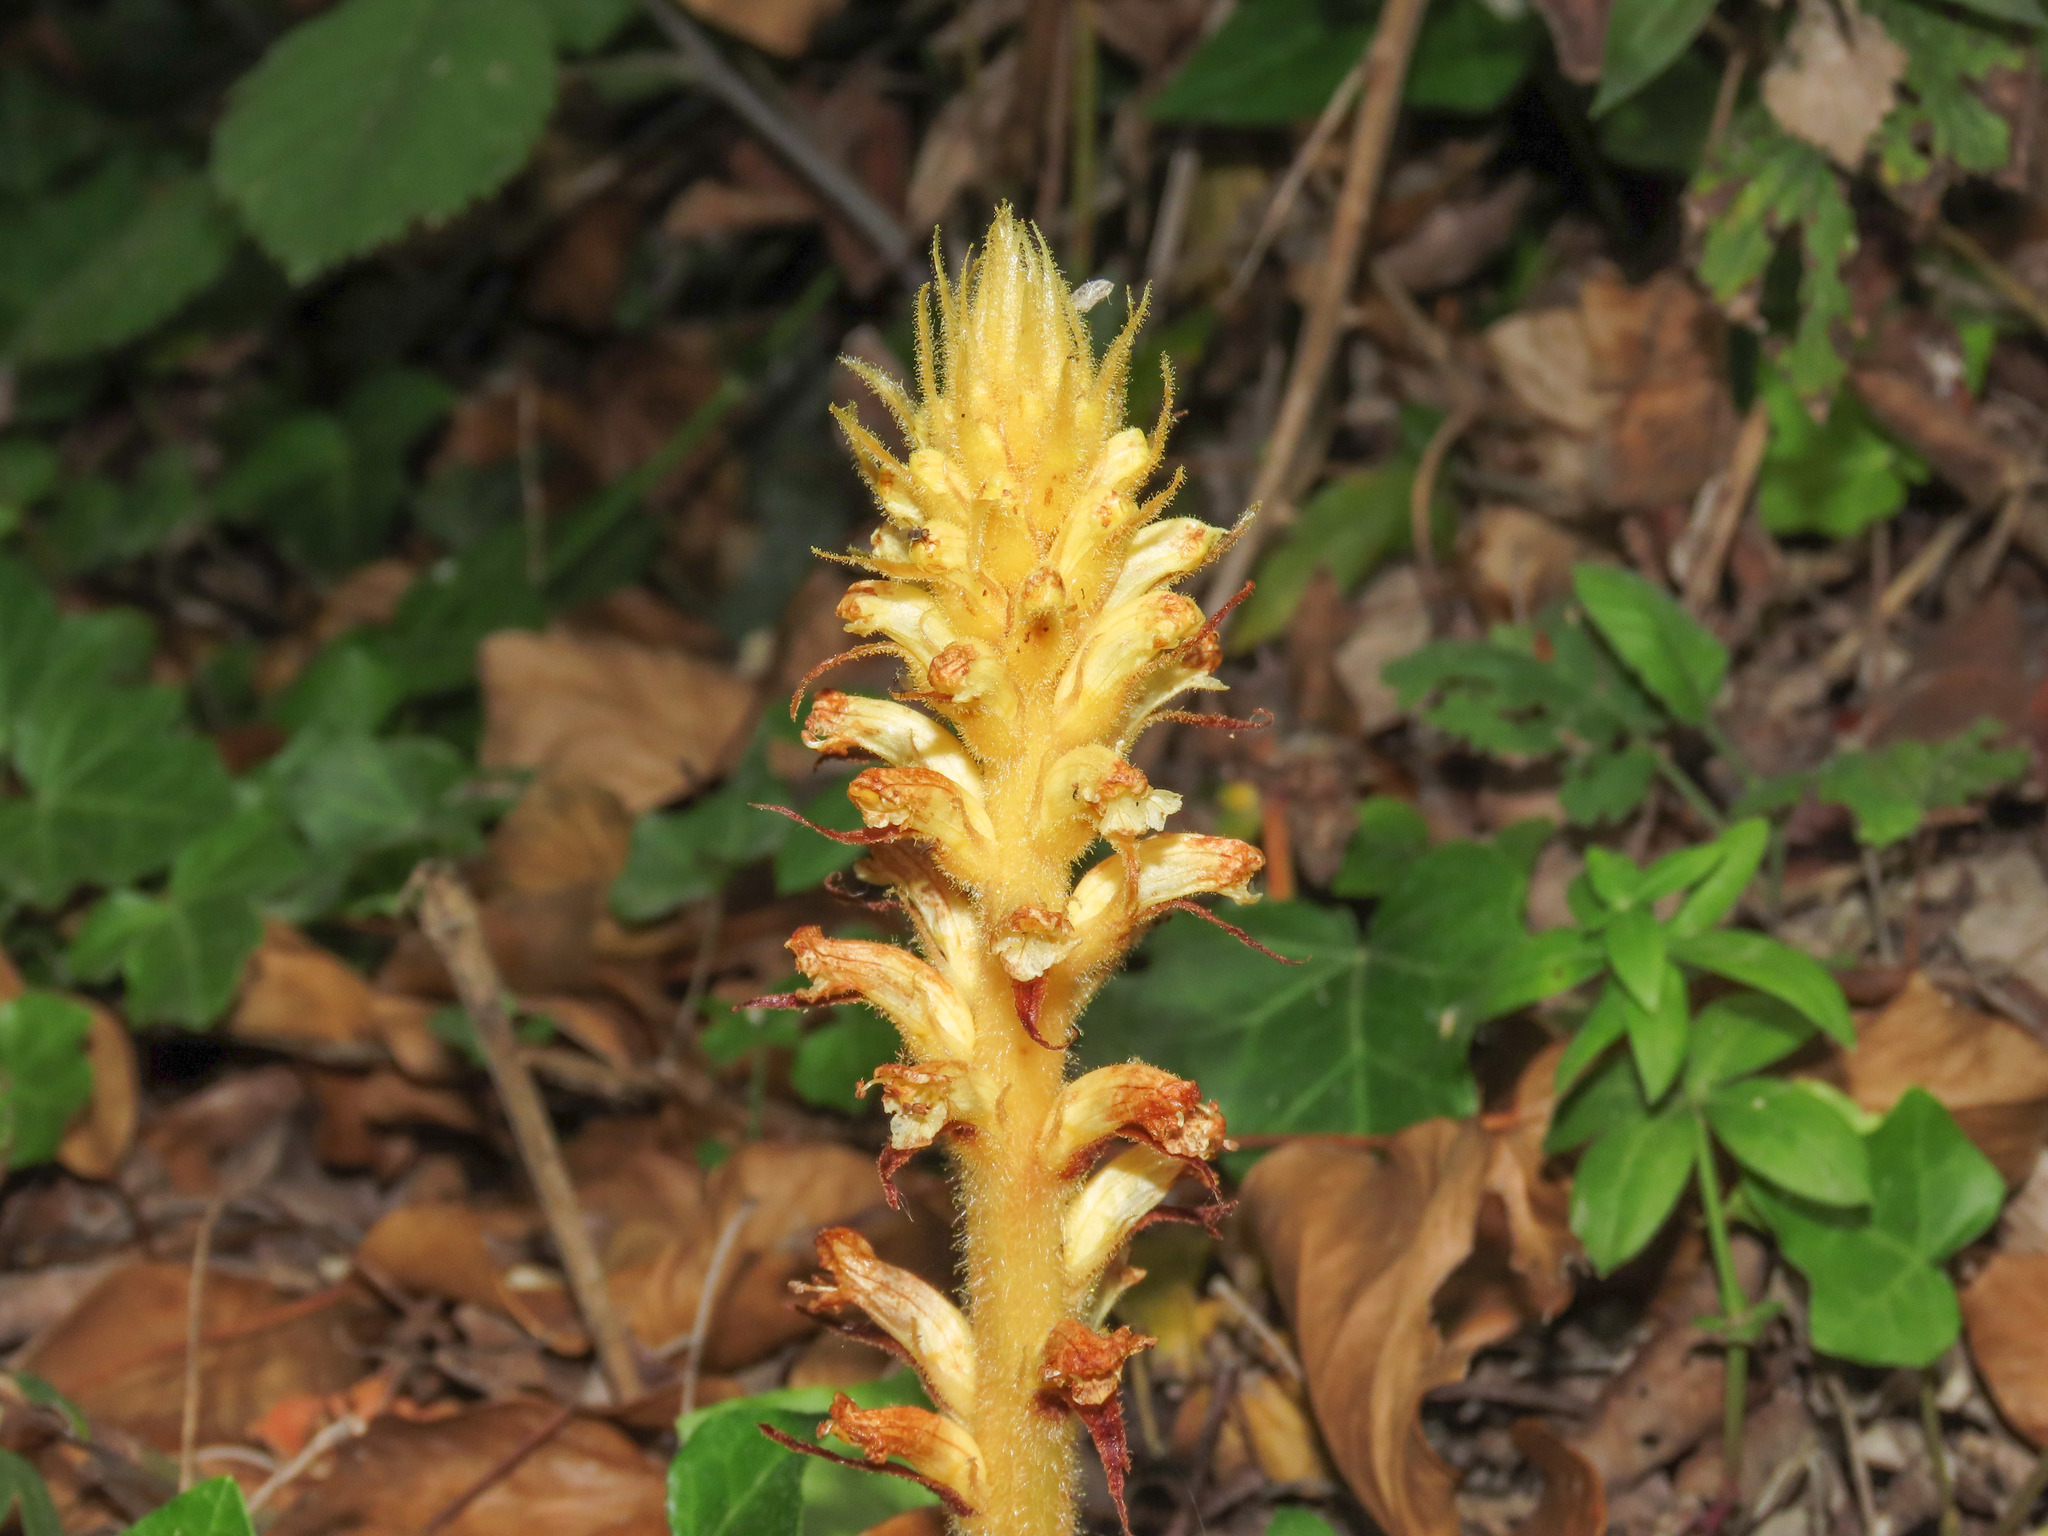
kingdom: Plantae
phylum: Tracheophyta
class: Magnoliopsida
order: Lamiales
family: Orobanchaceae
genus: Orobanche
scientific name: Orobanche hederae
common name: Ivy broomrape
